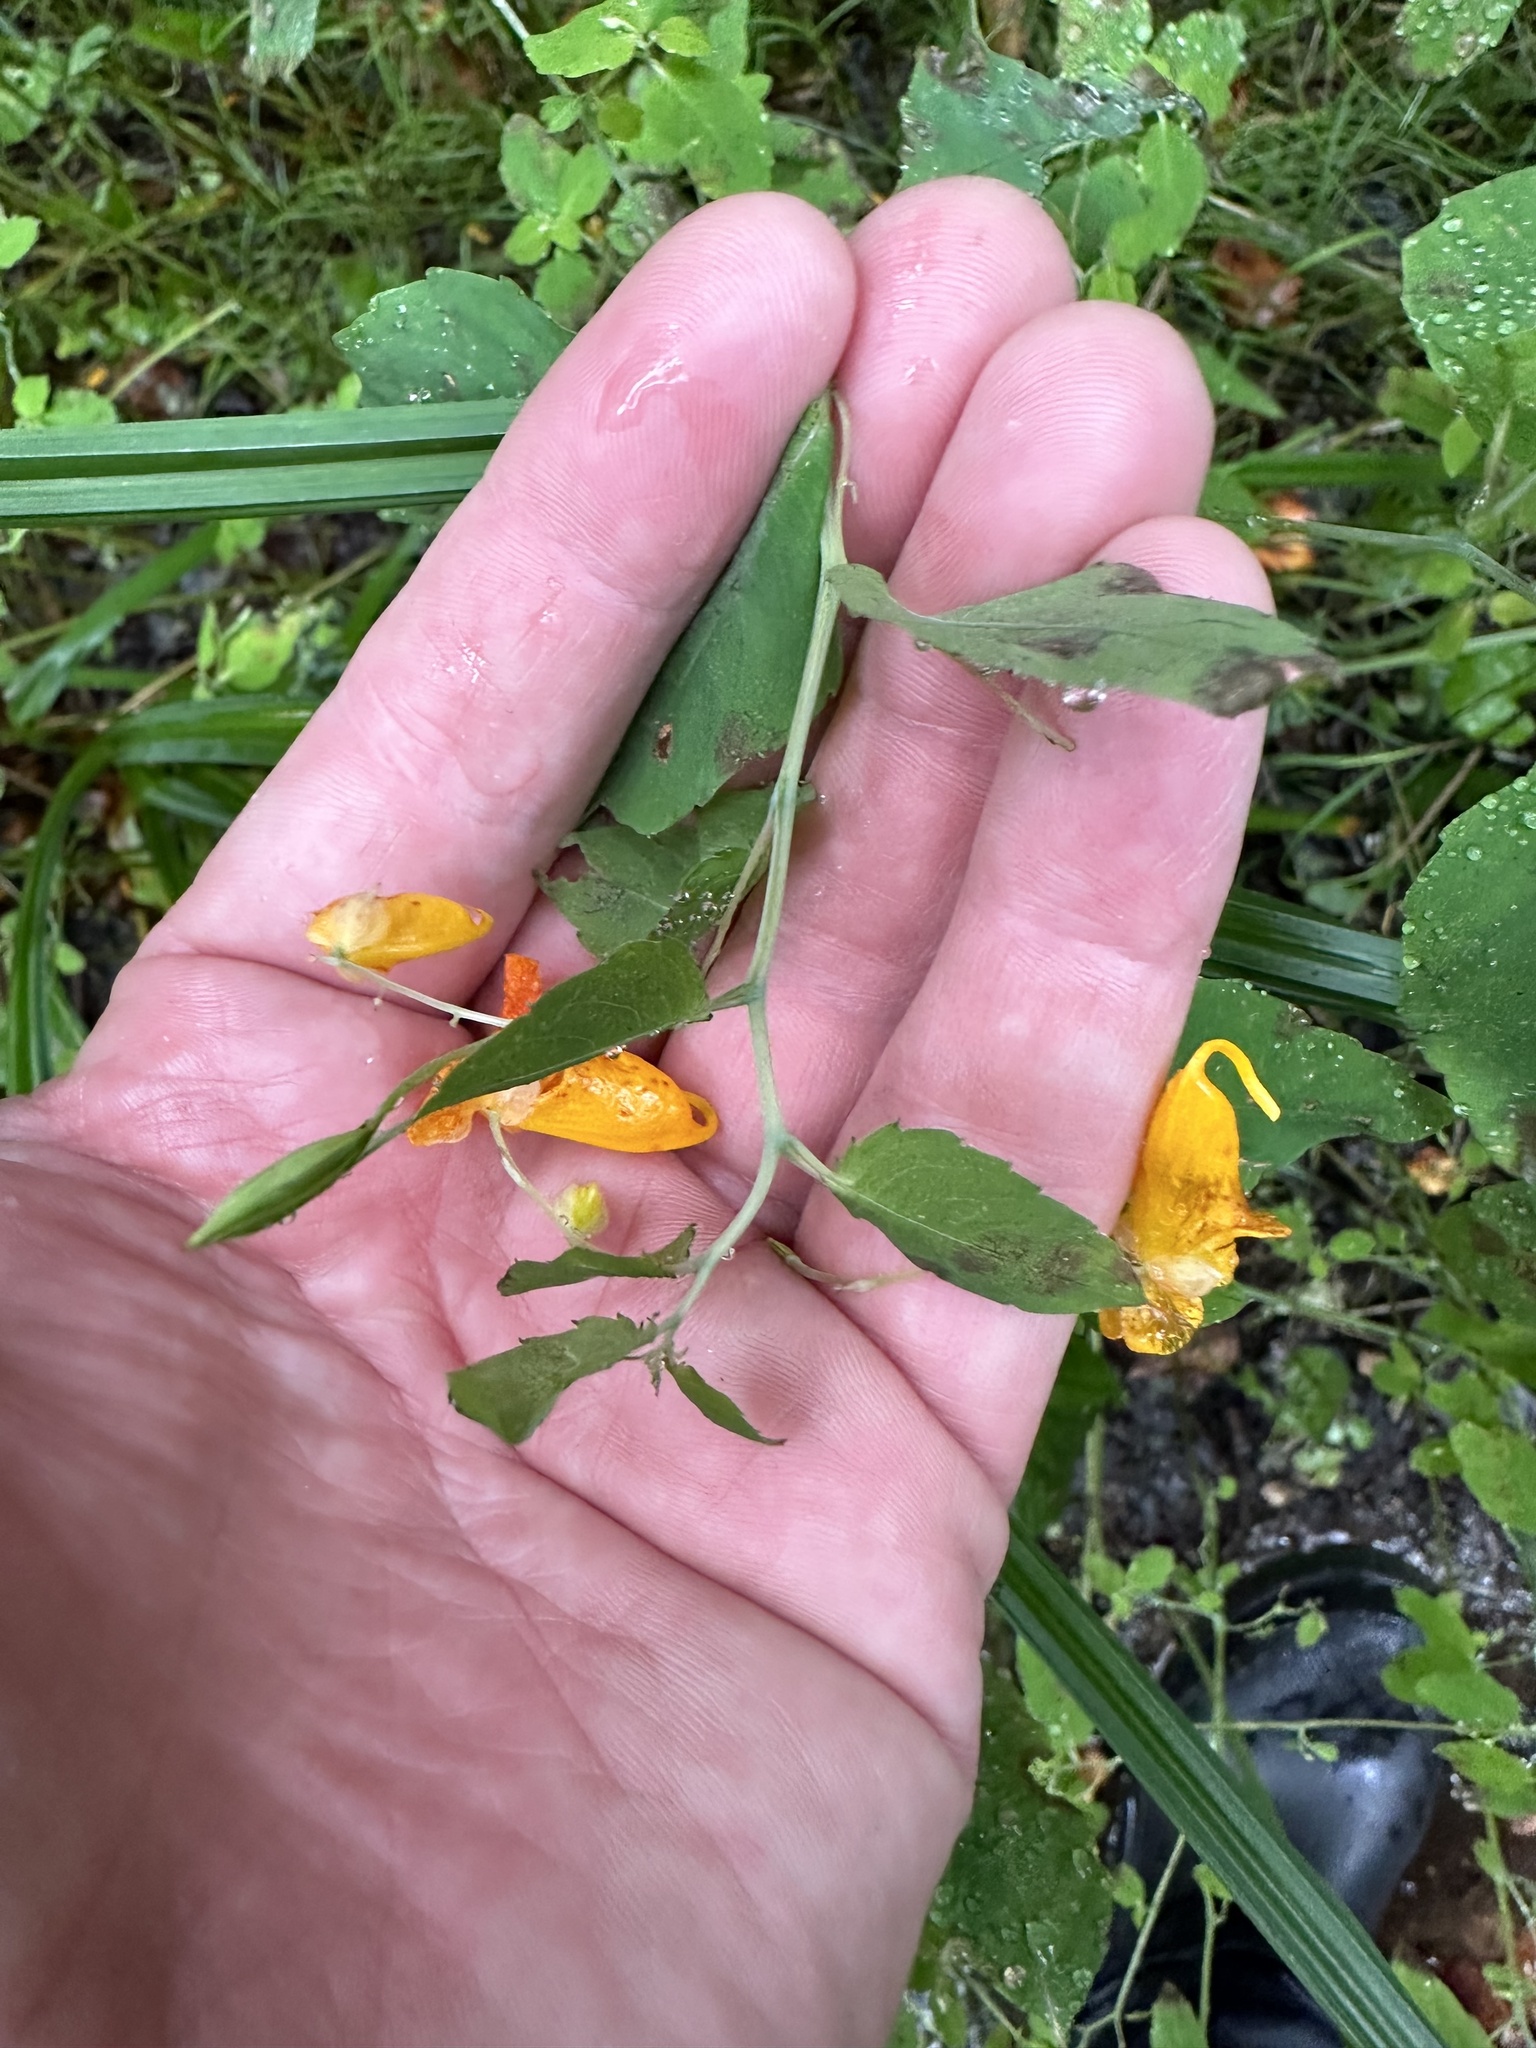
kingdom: Plantae
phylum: Tracheophyta
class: Magnoliopsida
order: Ericales
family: Balsaminaceae
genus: Impatiens
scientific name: Impatiens capensis
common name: Orange balsam
